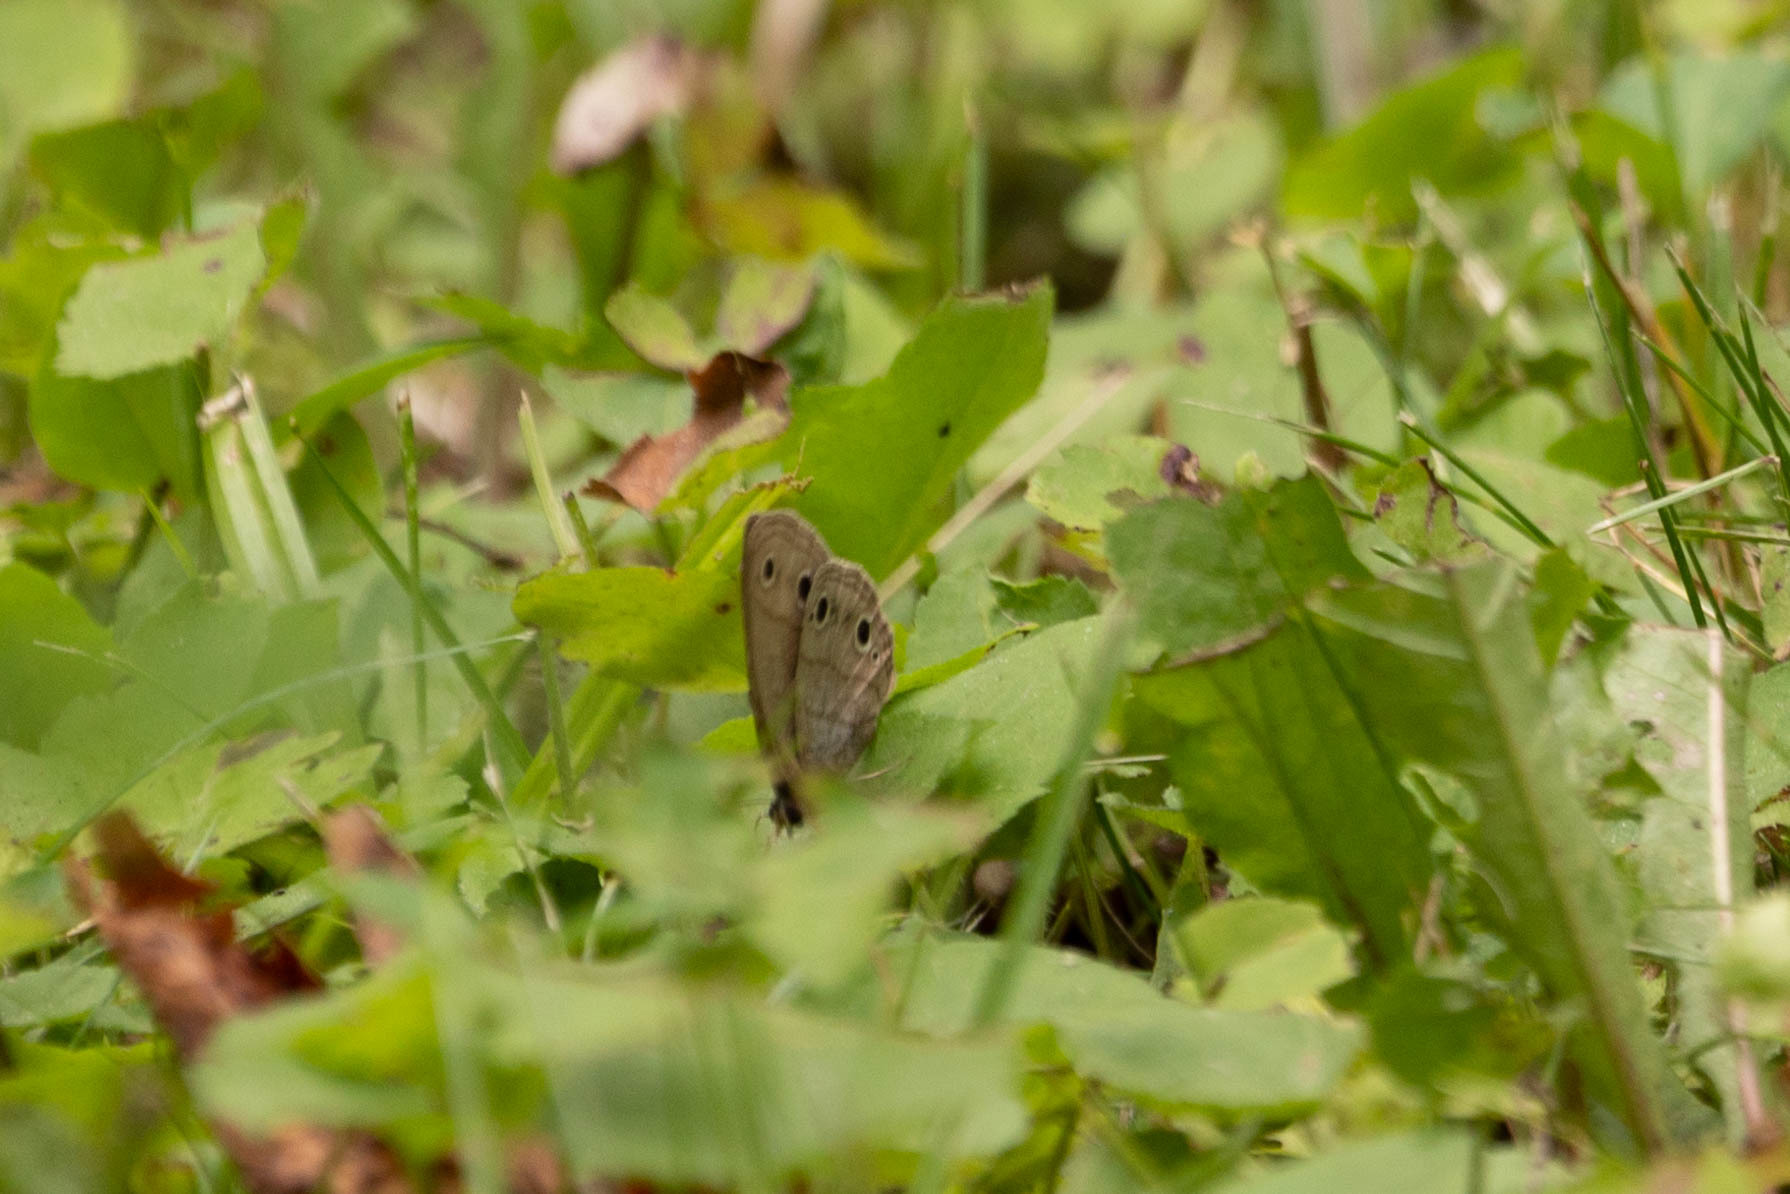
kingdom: Animalia
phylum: Arthropoda
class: Insecta
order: Lepidoptera
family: Nymphalidae
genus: Euptychia
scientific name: Euptychia cymela
